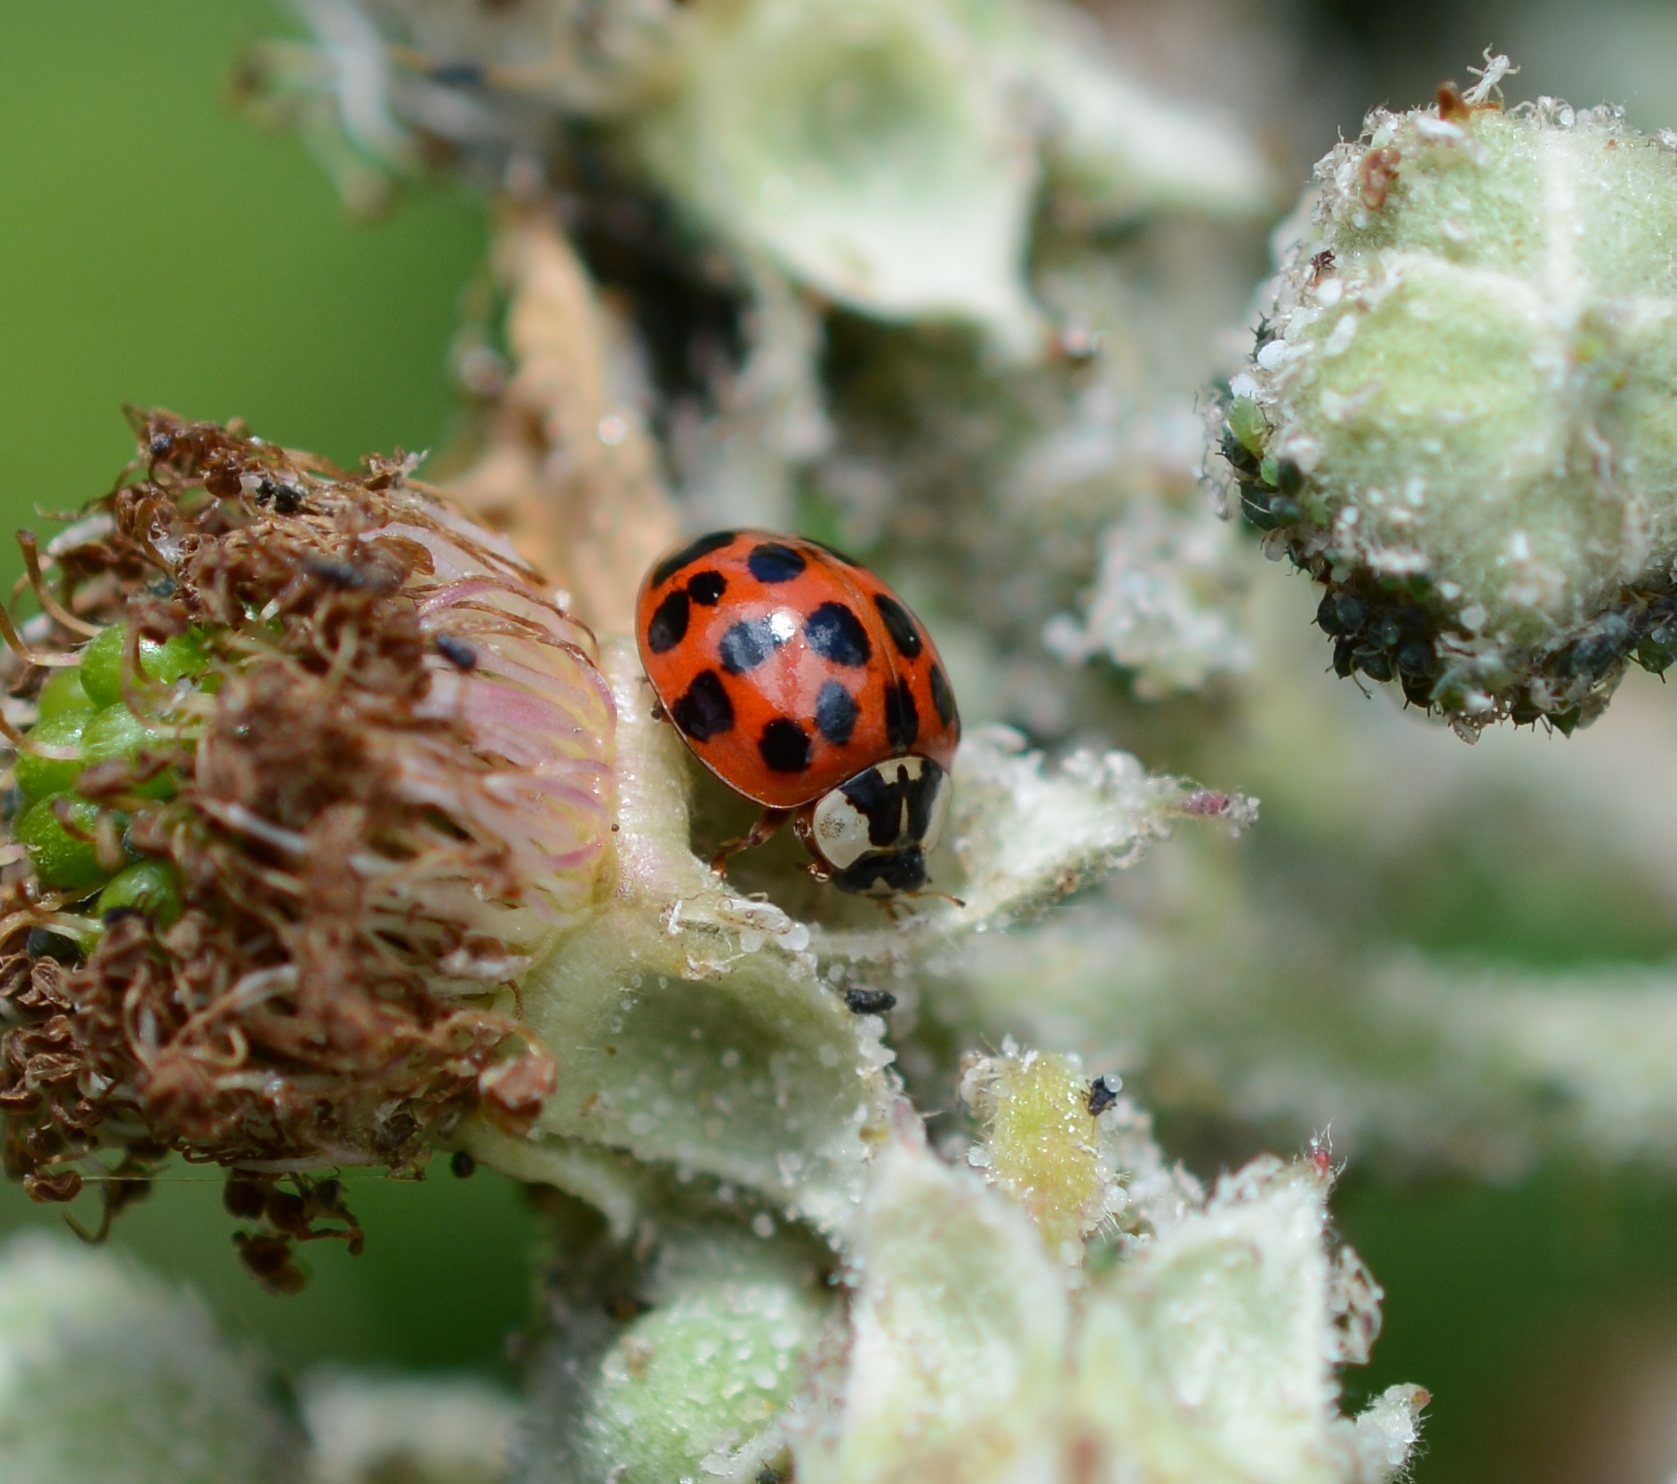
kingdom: Animalia
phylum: Arthropoda
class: Insecta
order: Coleoptera
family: Coccinellidae
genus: Harmonia
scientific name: Harmonia axyridis
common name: Harlequin ladybird
